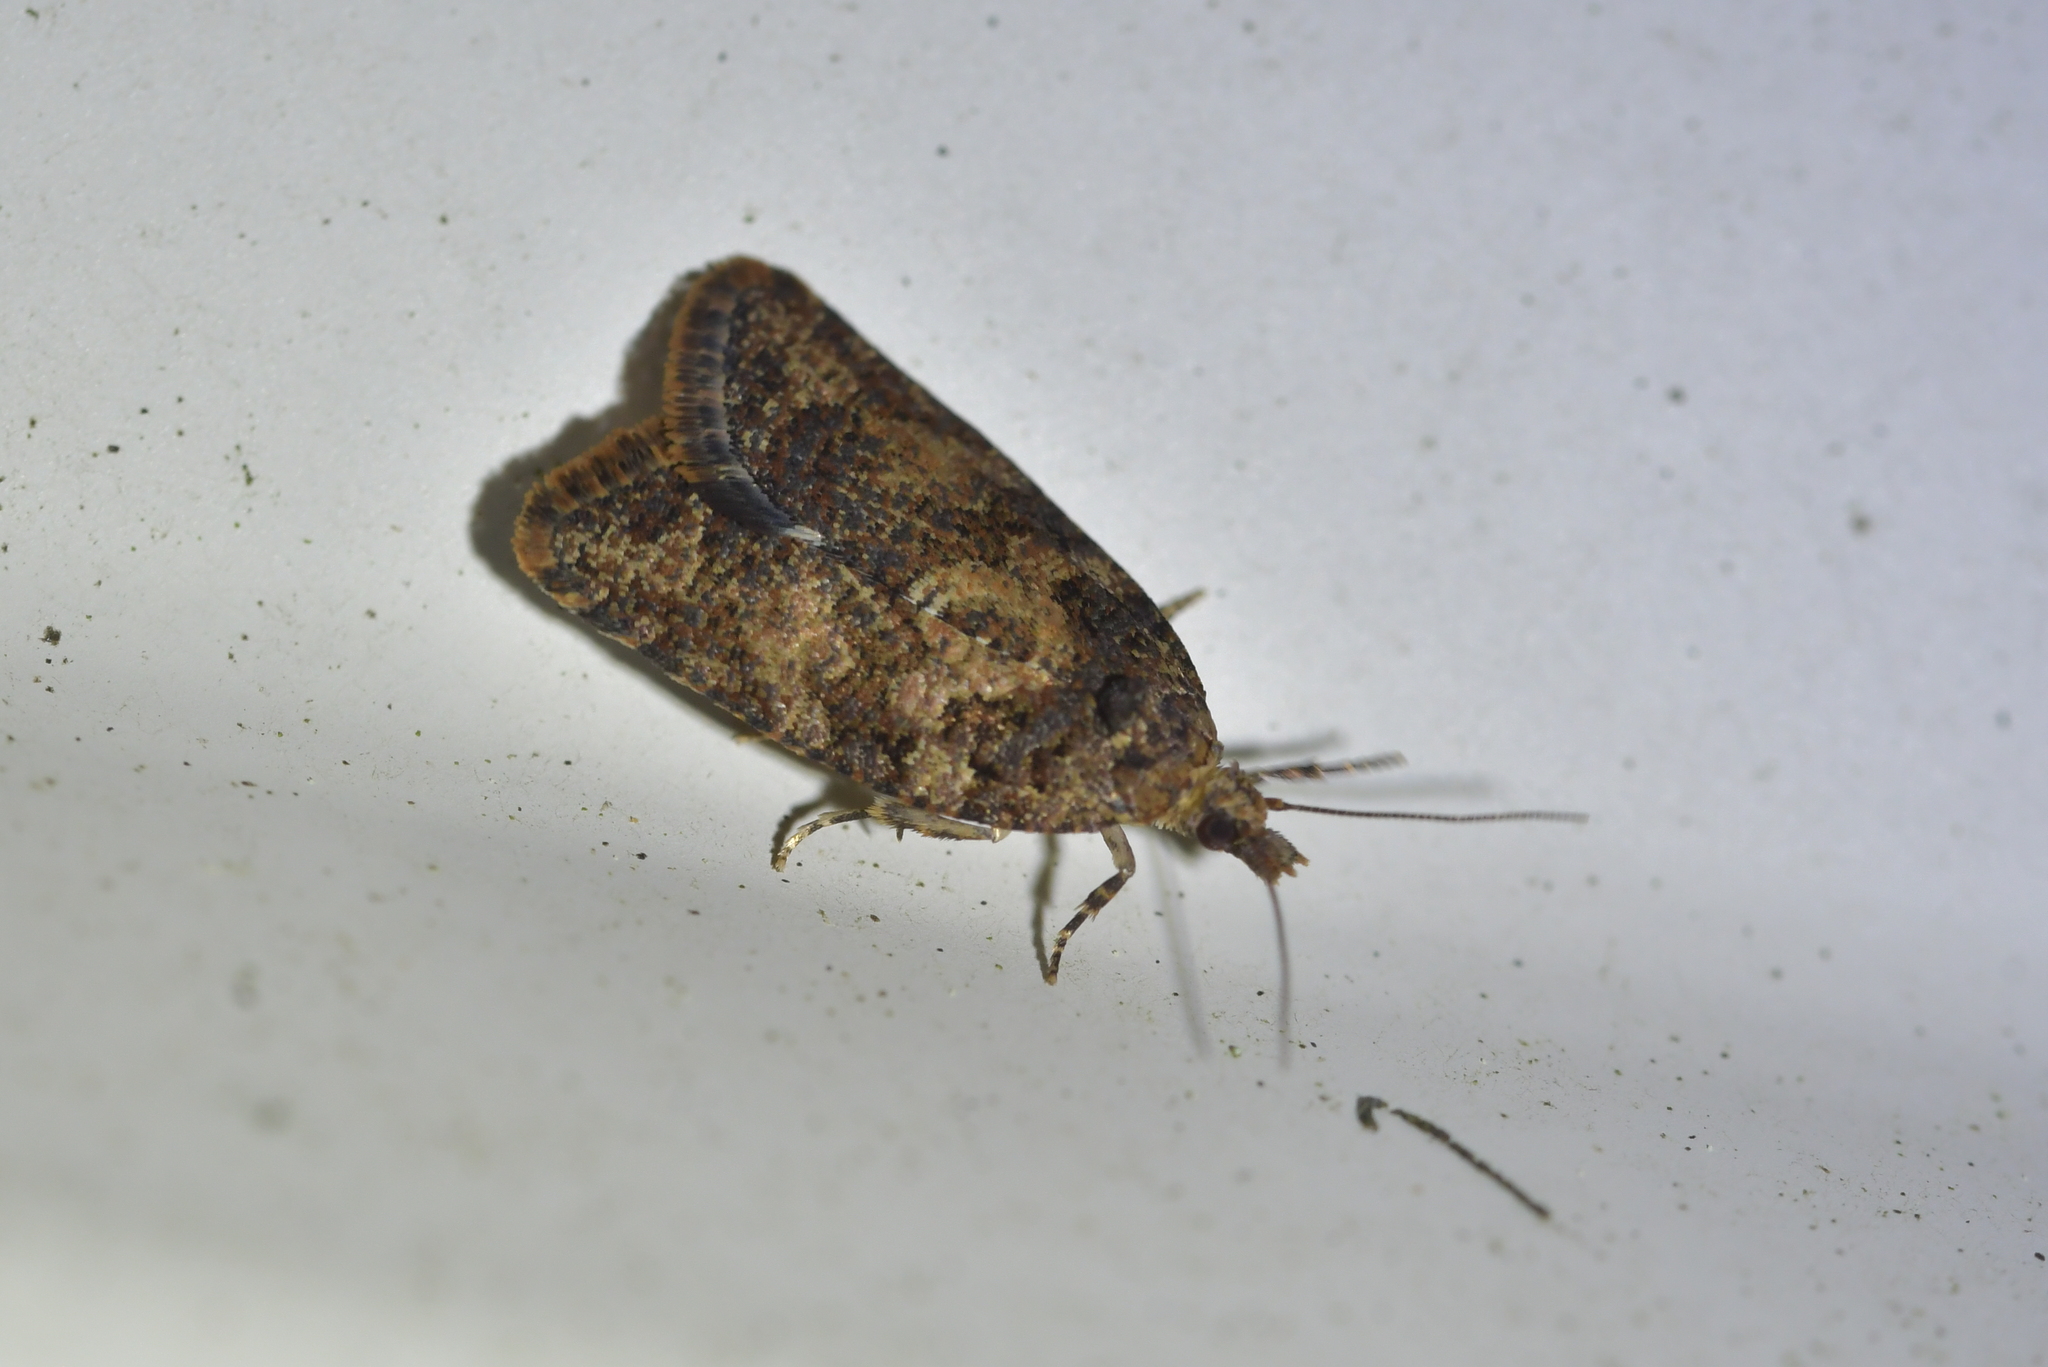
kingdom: Animalia
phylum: Arthropoda
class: Insecta
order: Lepidoptera
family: Tortricidae
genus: Capua
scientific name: Capua intractana
